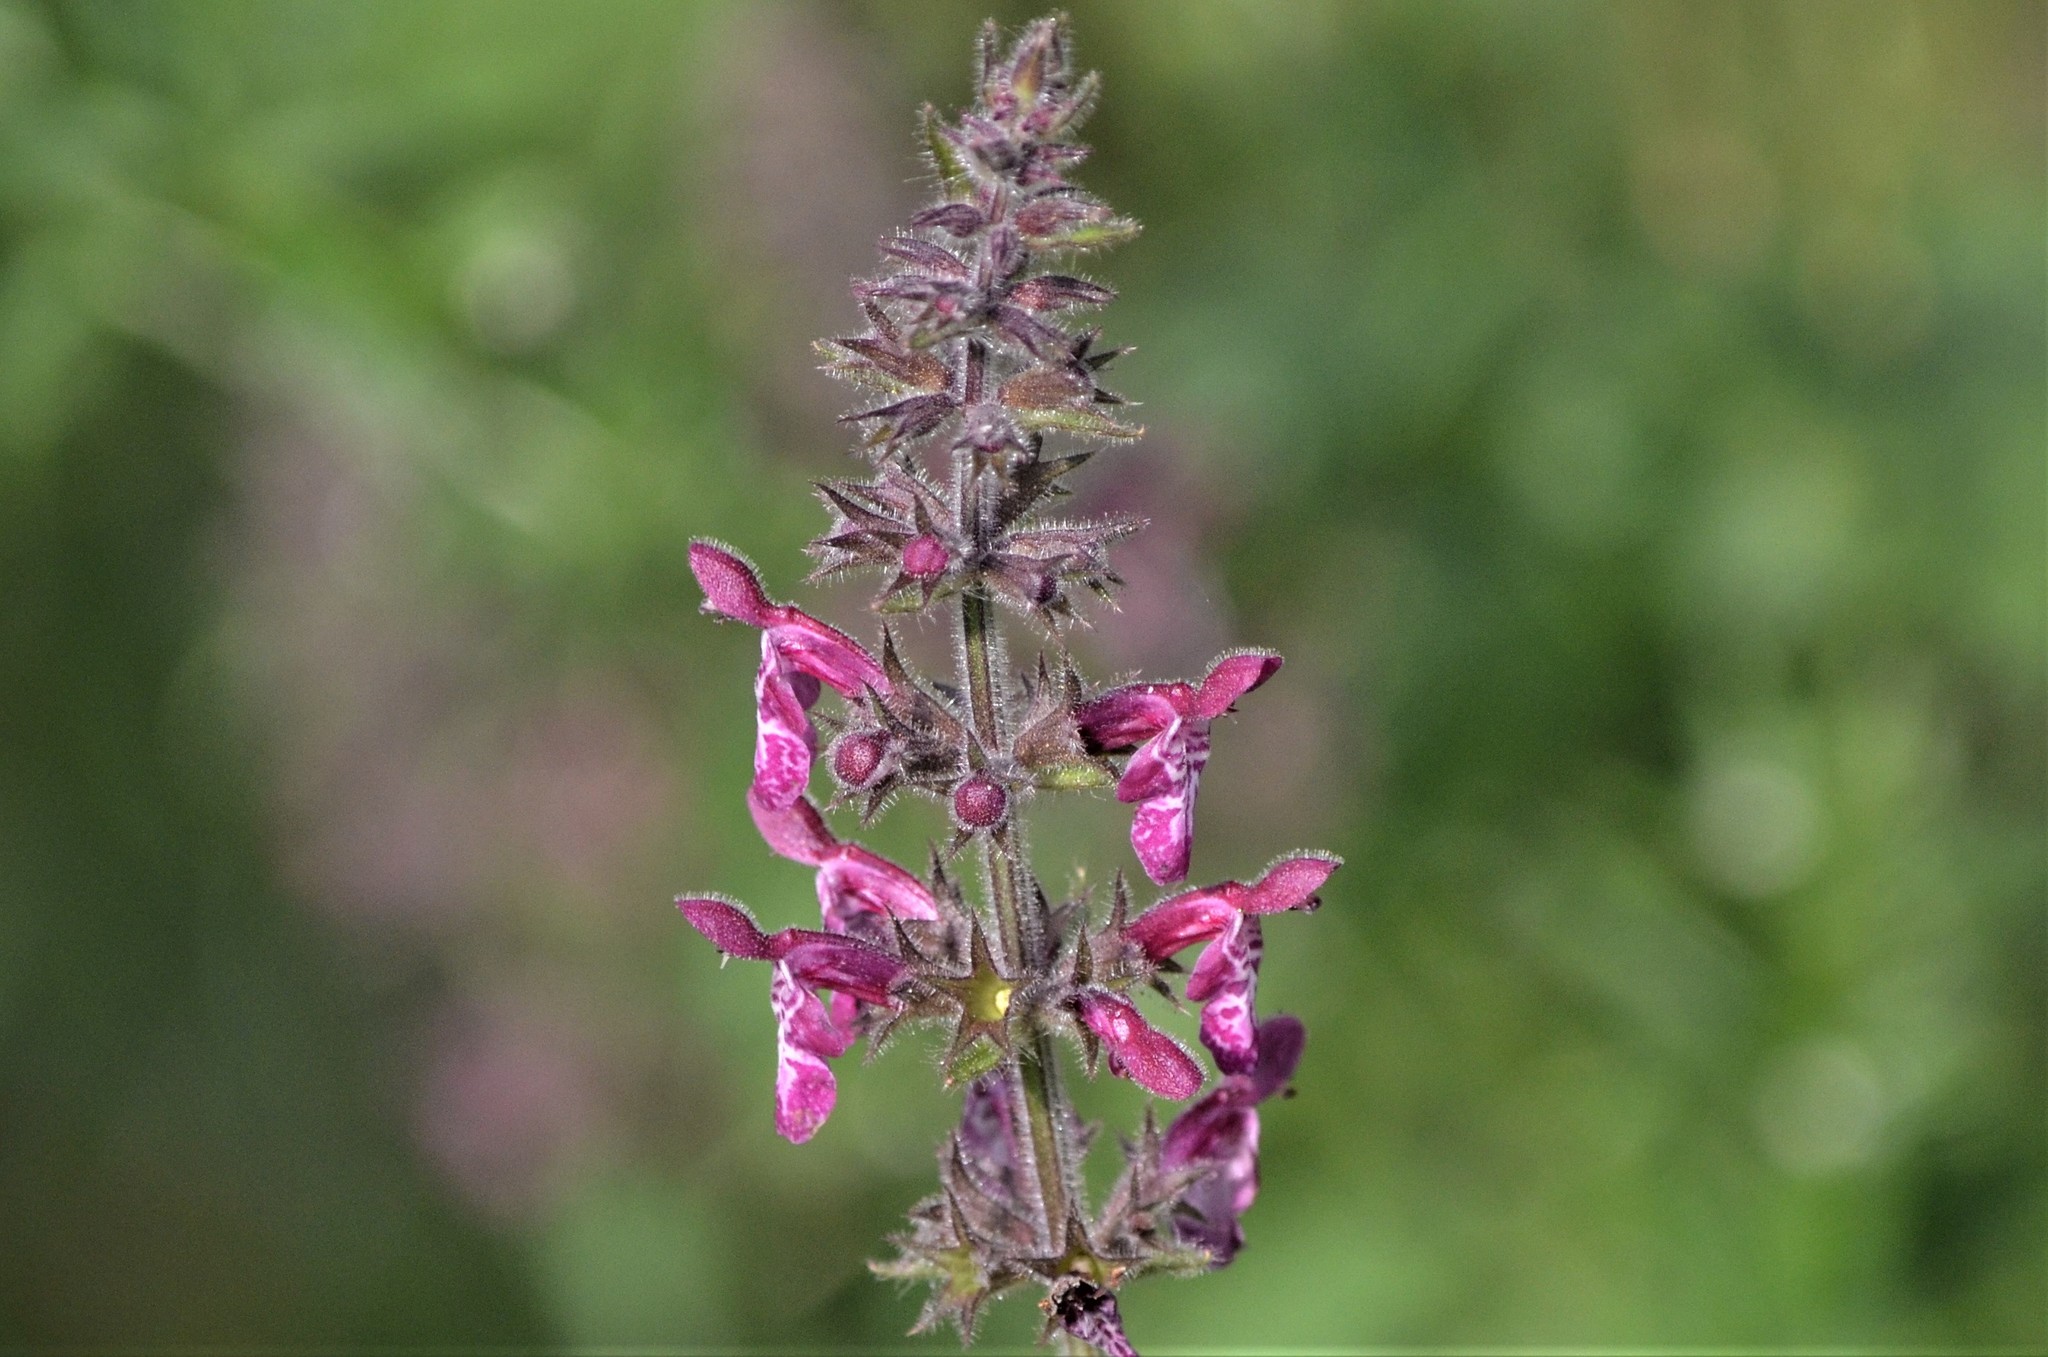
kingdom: Plantae
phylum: Tracheophyta
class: Magnoliopsida
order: Lamiales
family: Lamiaceae
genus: Stachys
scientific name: Stachys sylvatica
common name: Hedge woundwort
